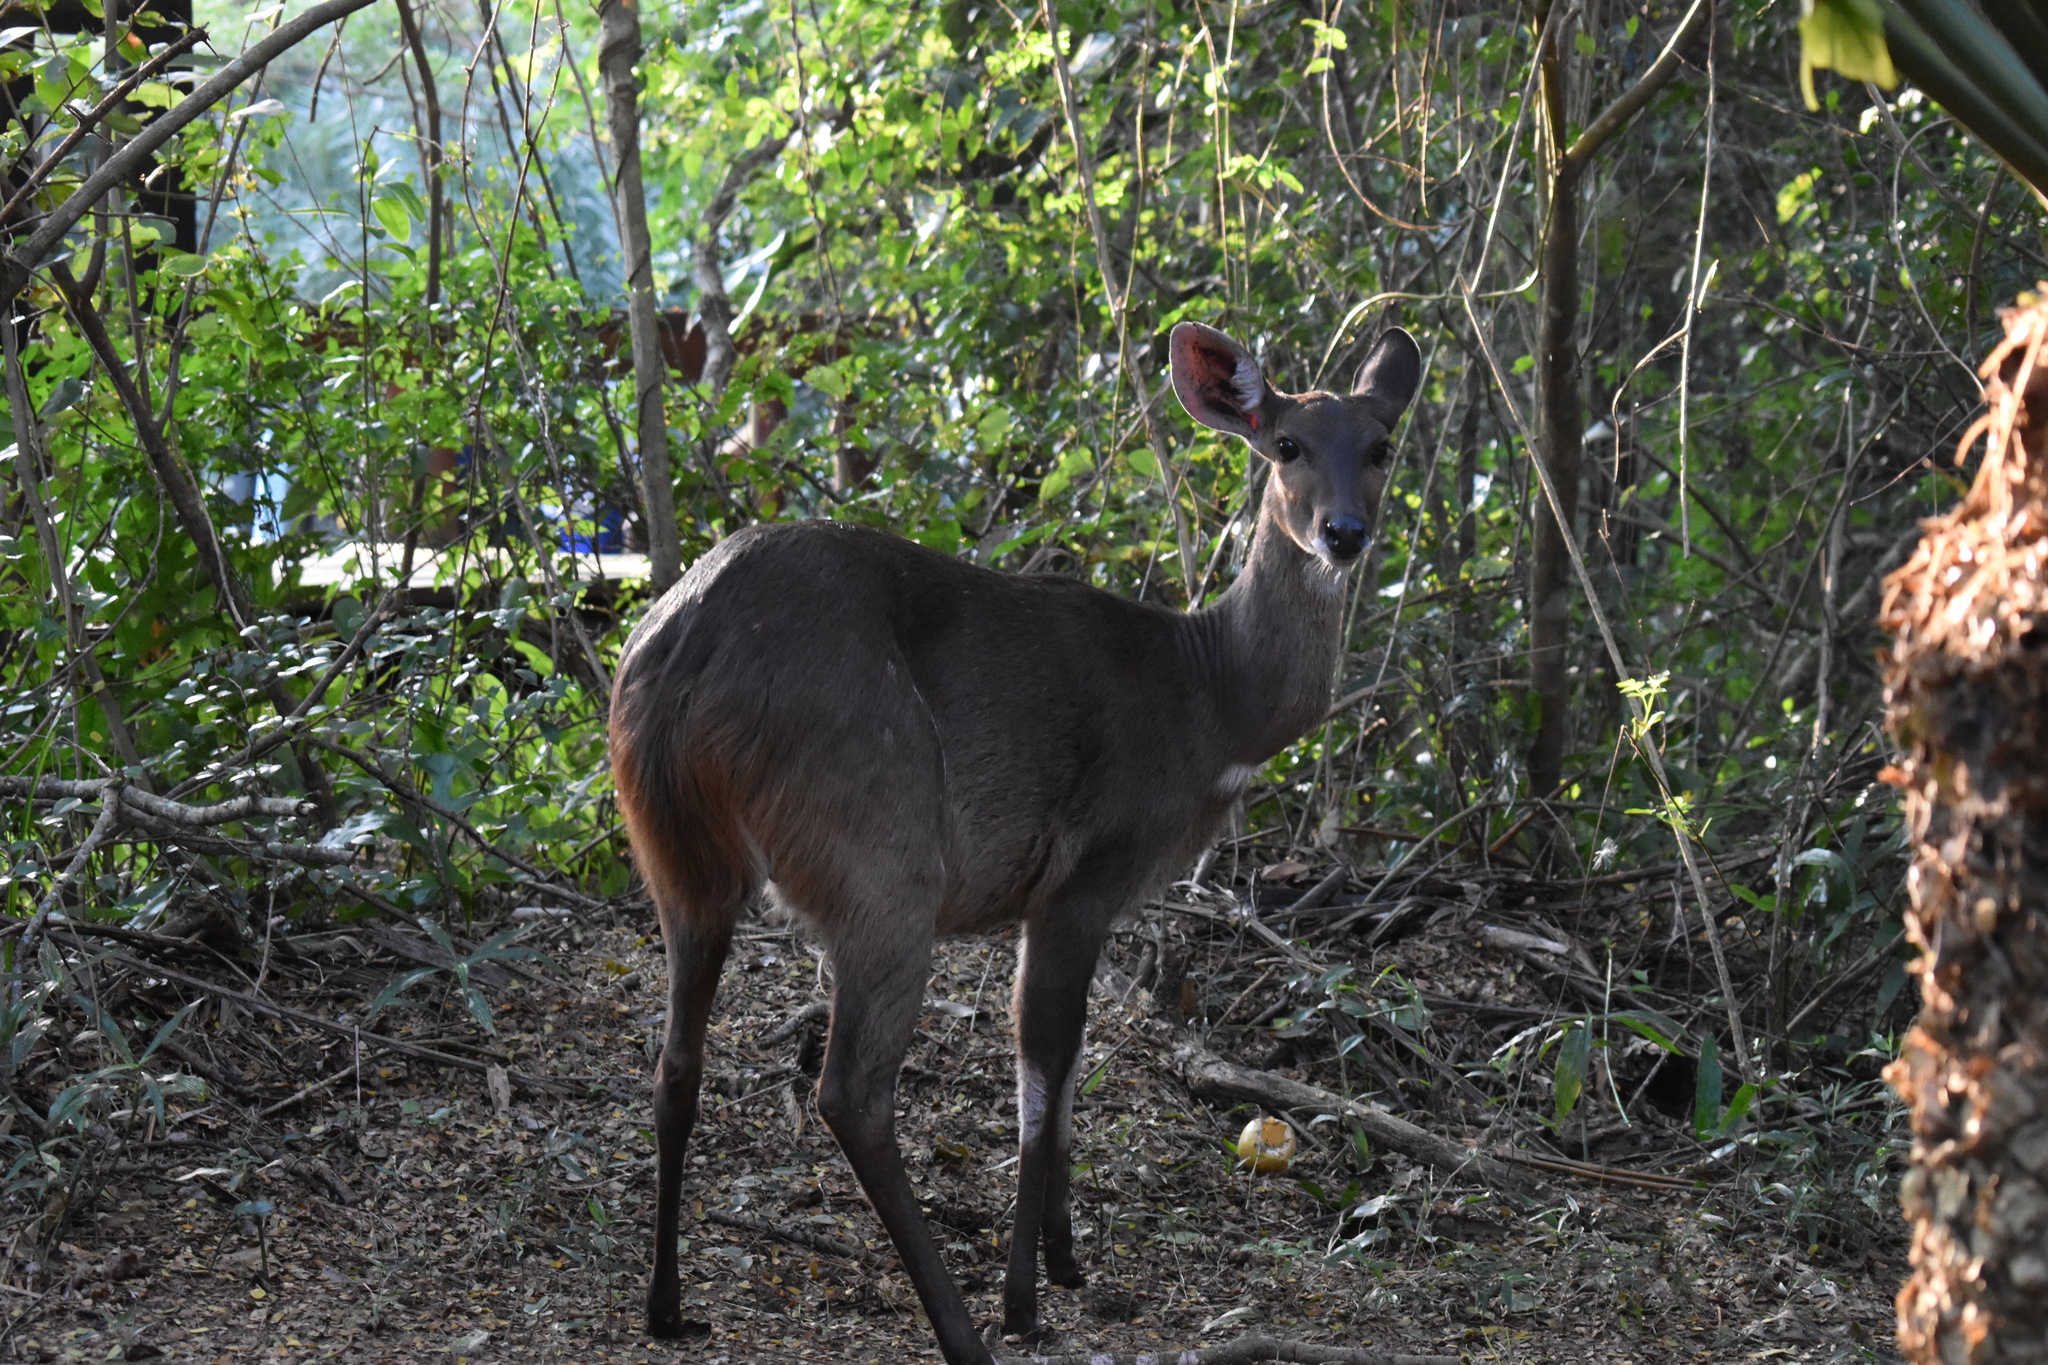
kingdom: Animalia
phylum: Chordata
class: Mammalia
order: Artiodactyla
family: Bovidae
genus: Tragelaphus
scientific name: Tragelaphus scriptus
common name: Bushbuck
